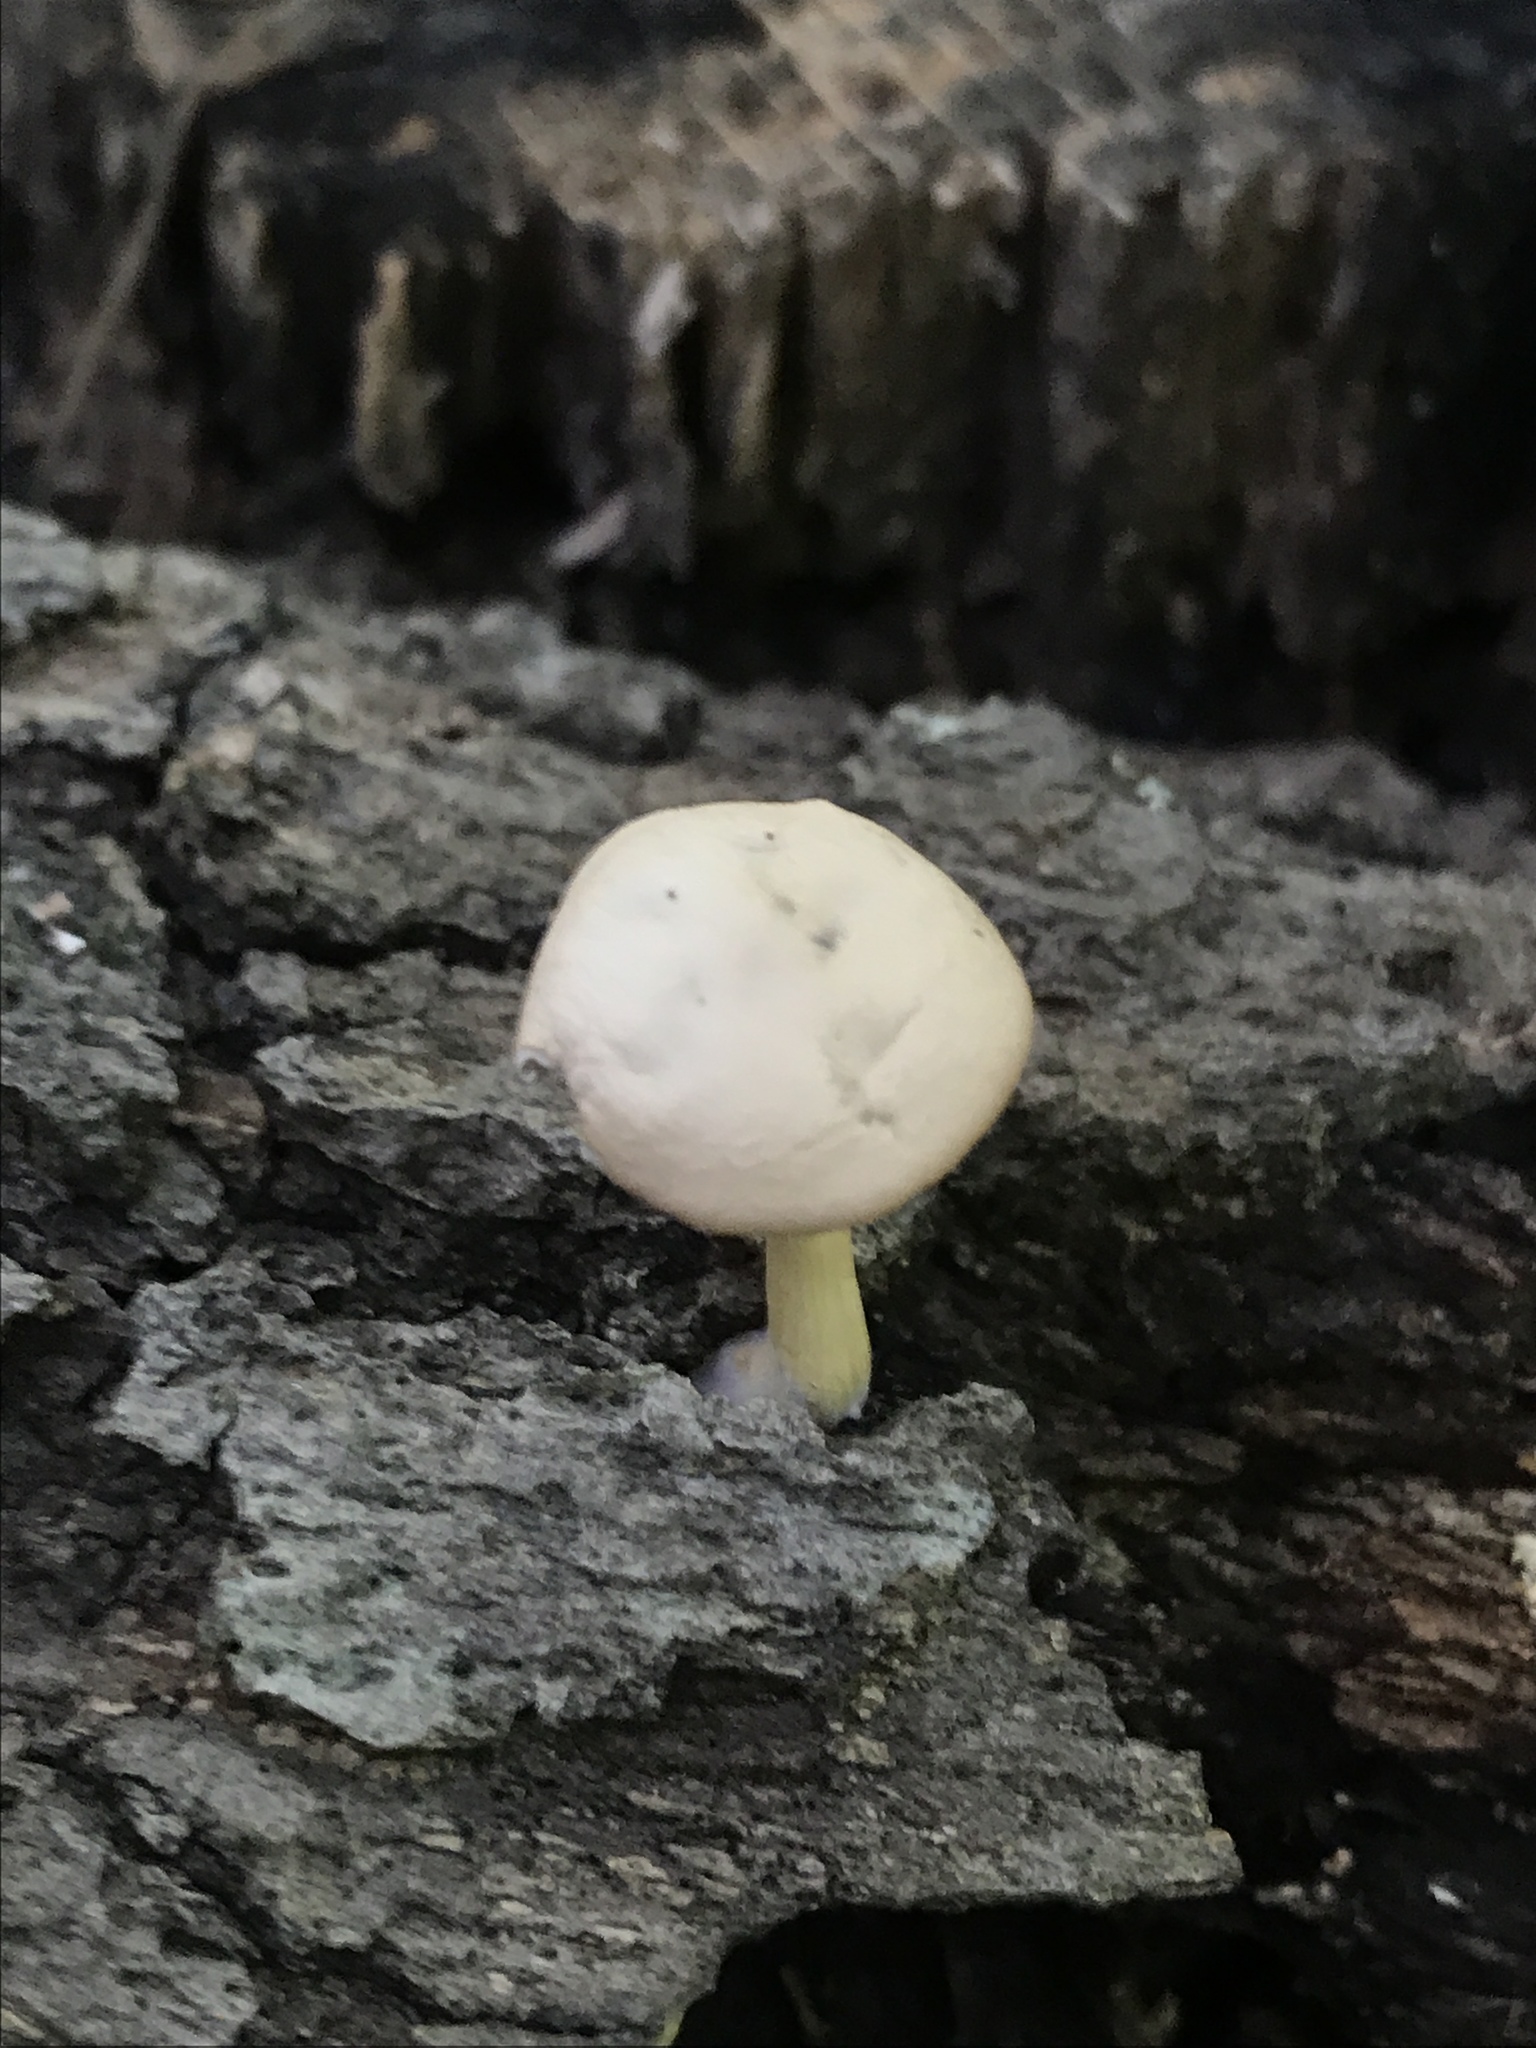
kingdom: Fungi
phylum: Basidiomycota
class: Agaricomycetes
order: Agaricales
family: Tricholomataceae
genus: Clitocybe
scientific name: Clitocybe subditopoda
